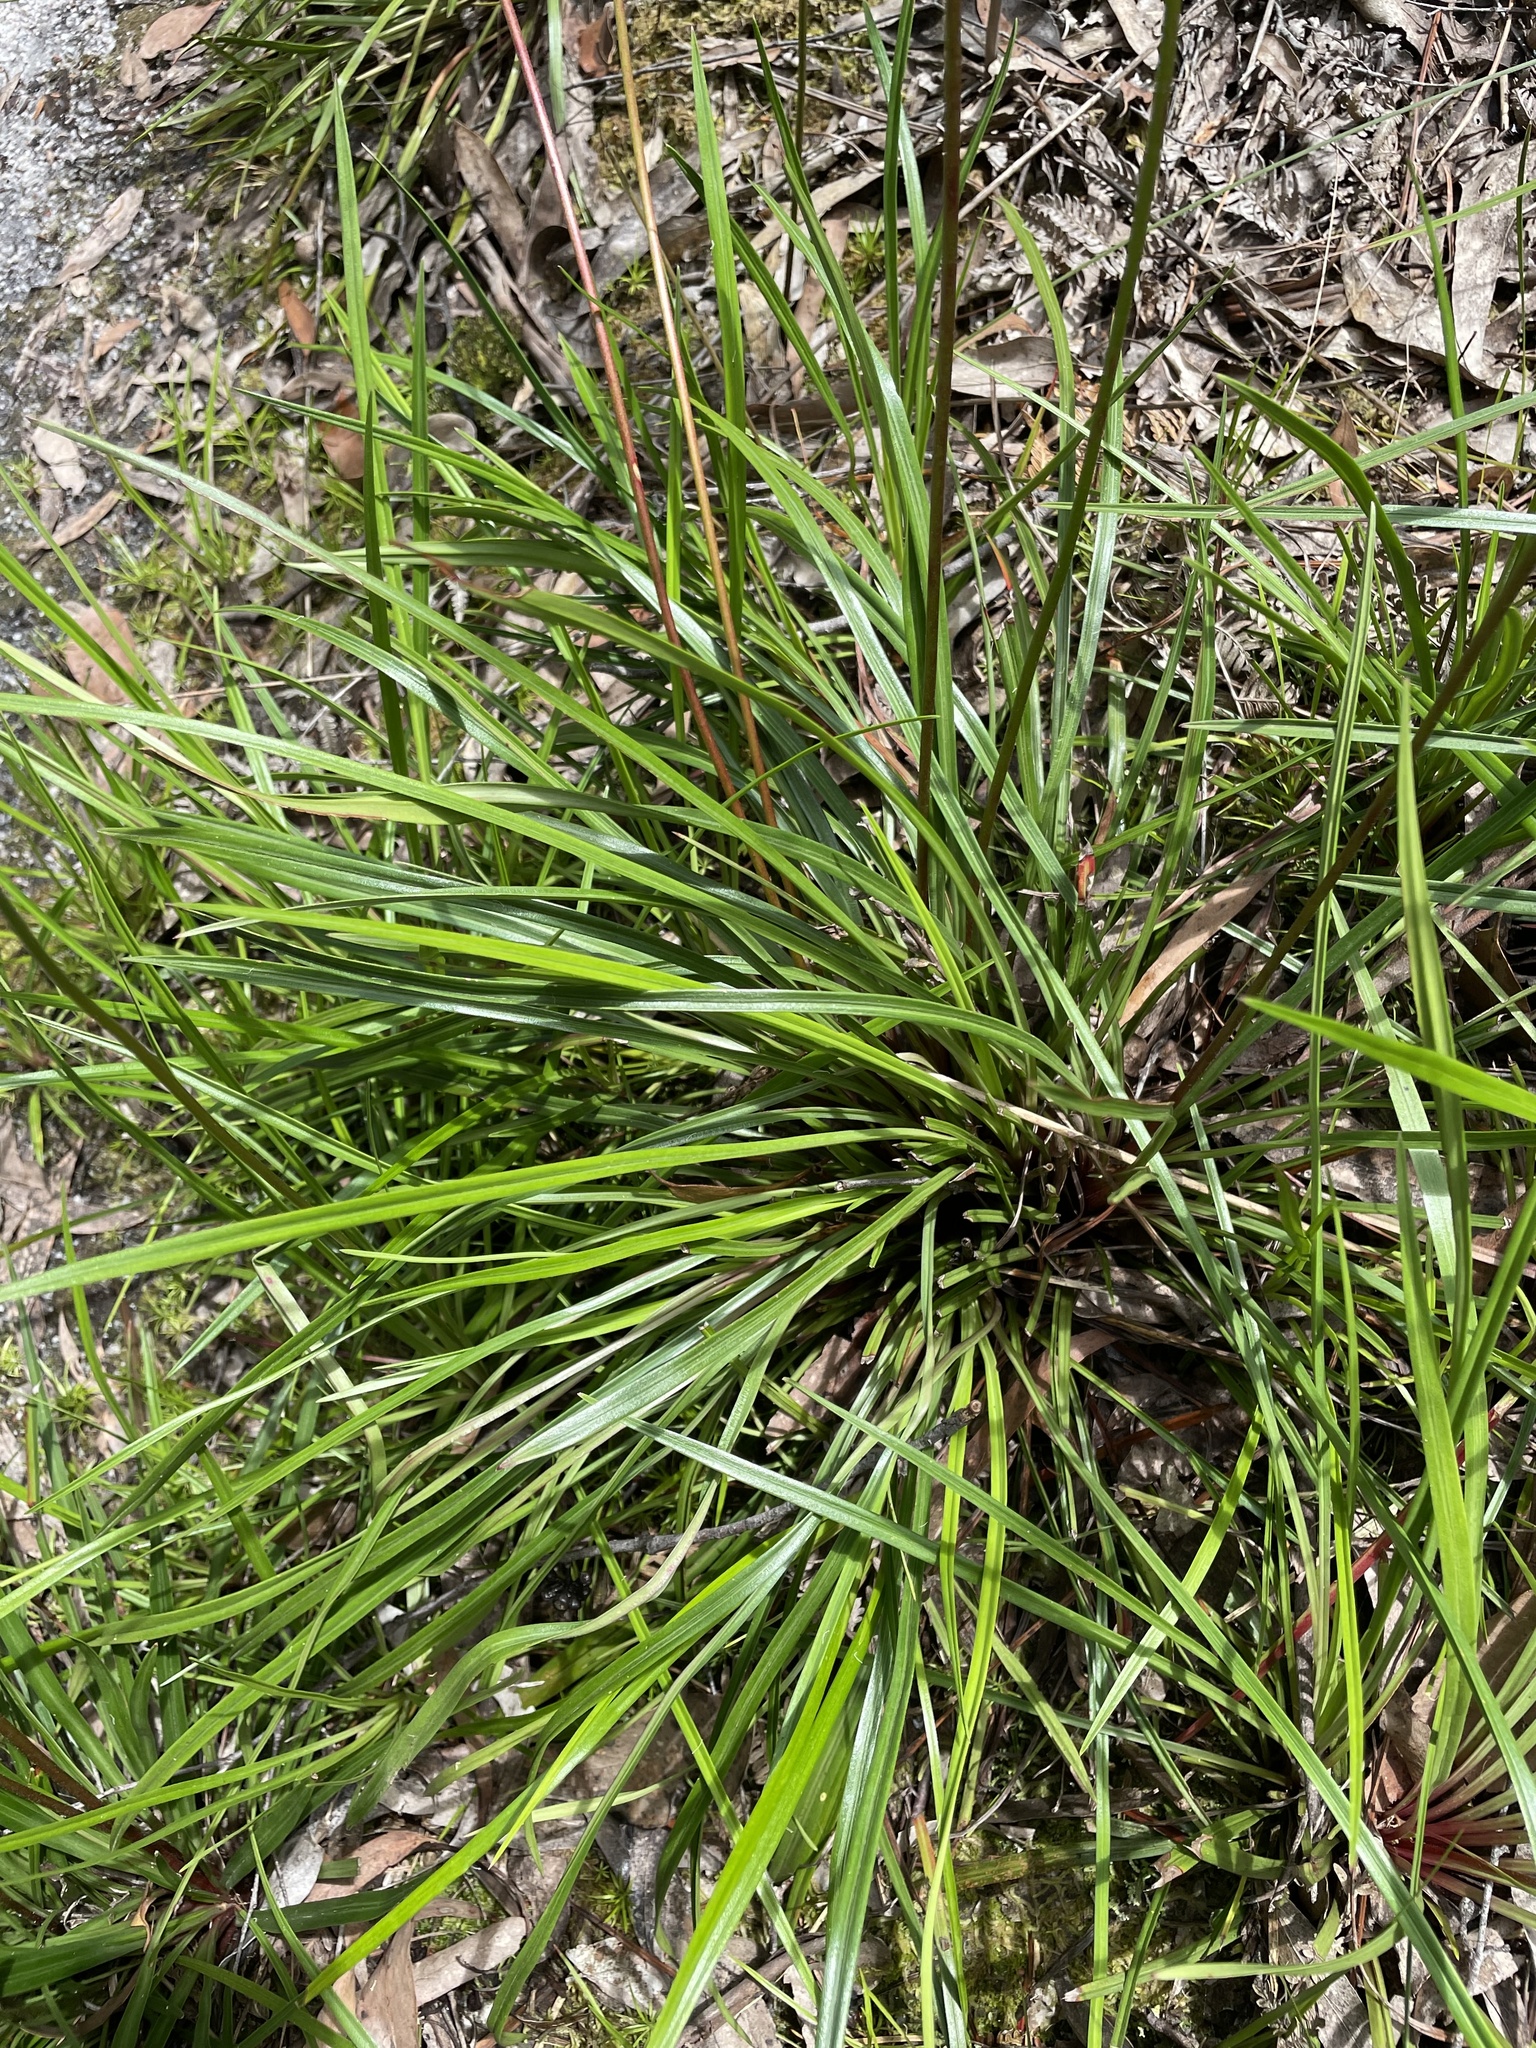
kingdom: Plantae
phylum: Tracheophyta
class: Magnoliopsida
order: Asterales
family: Stylidiaceae
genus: Stylidium
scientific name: Stylidium armeria
